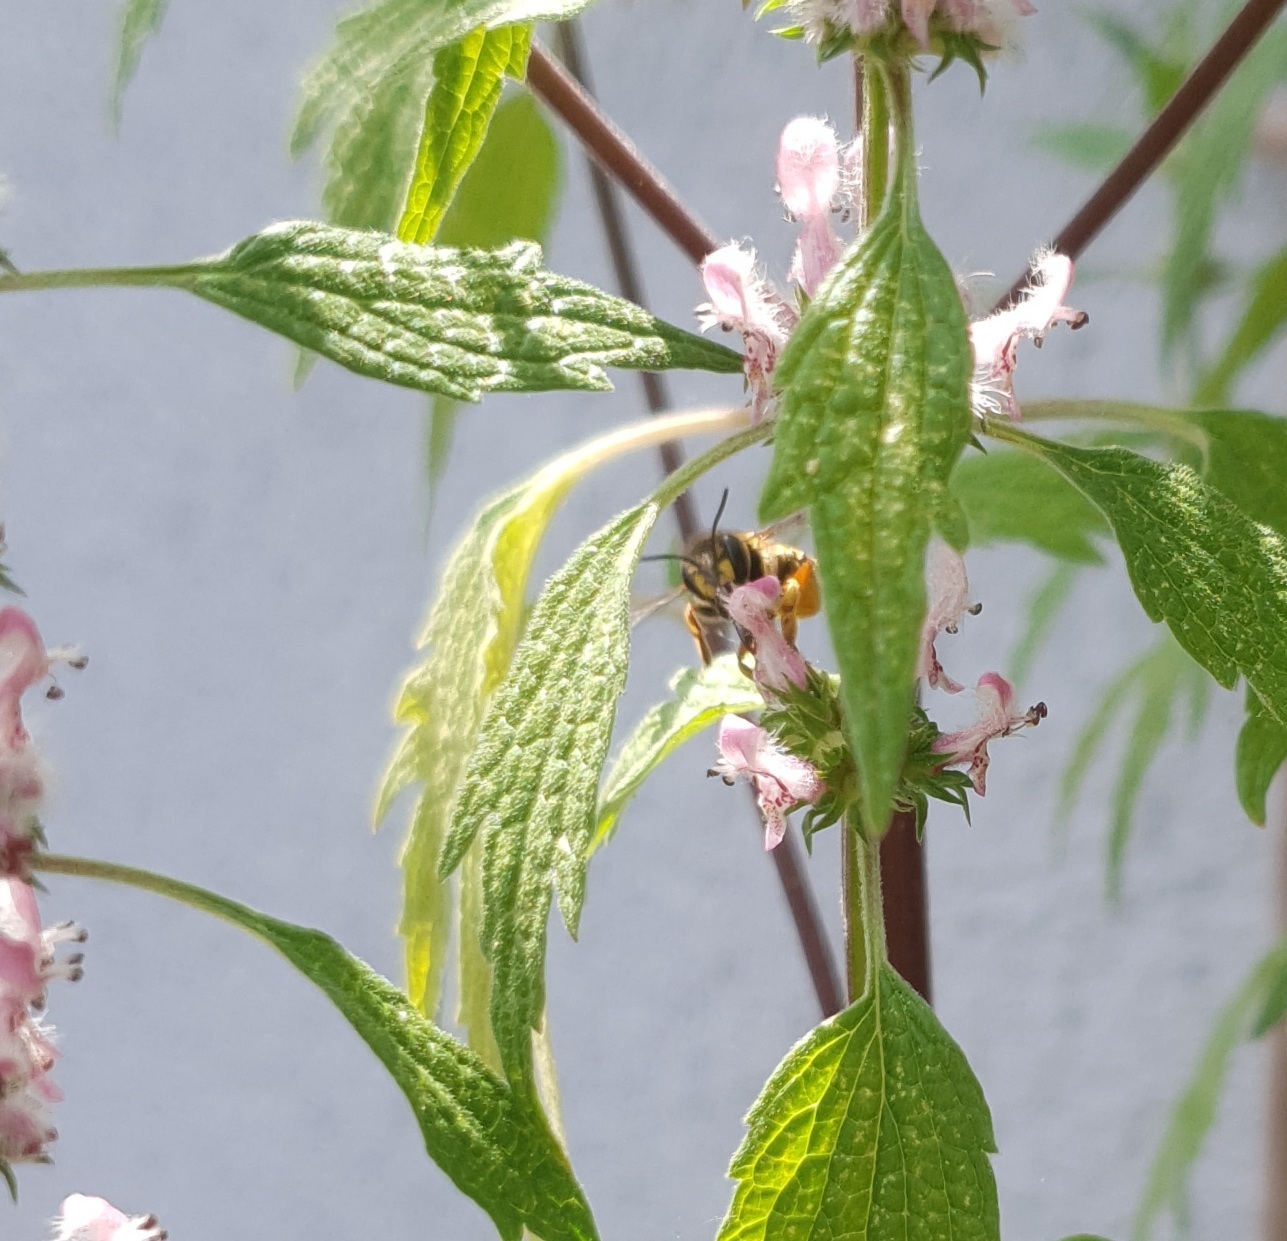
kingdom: Animalia
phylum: Arthropoda
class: Insecta
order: Hymenoptera
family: Megachilidae
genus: Anthidium
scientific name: Anthidium manicatum
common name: Wool carder bee
